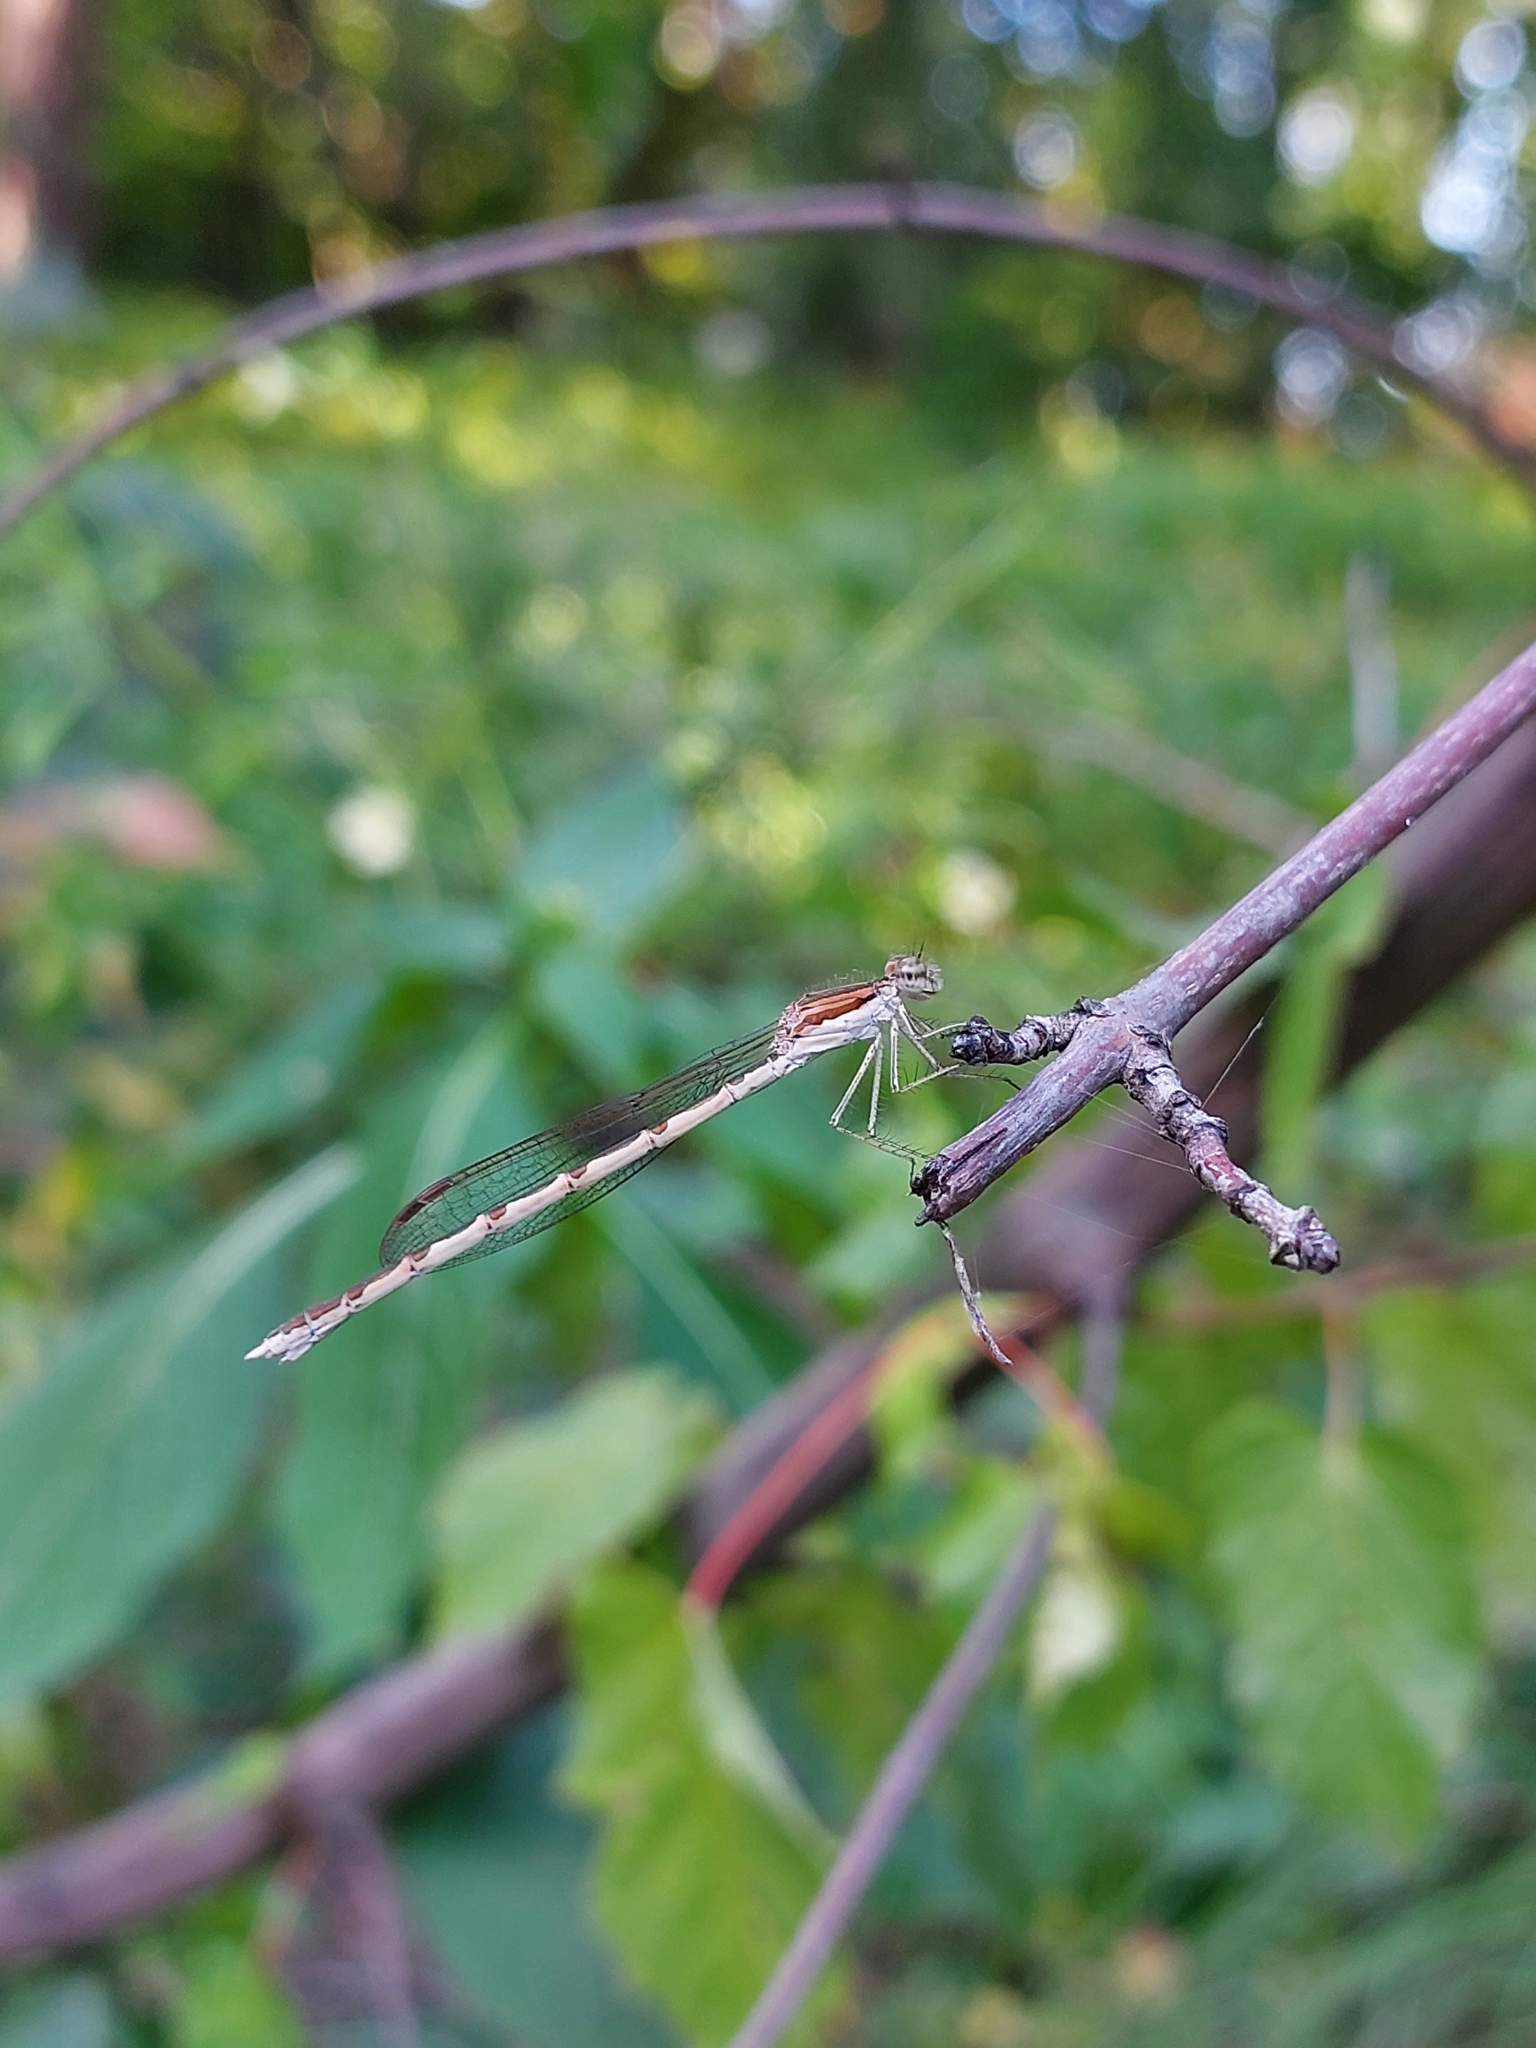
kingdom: Animalia
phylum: Arthropoda
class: Insecta
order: Odonata
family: Lestidae
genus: Sympecma
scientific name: Sympecma fusca
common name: Common winter damsel
